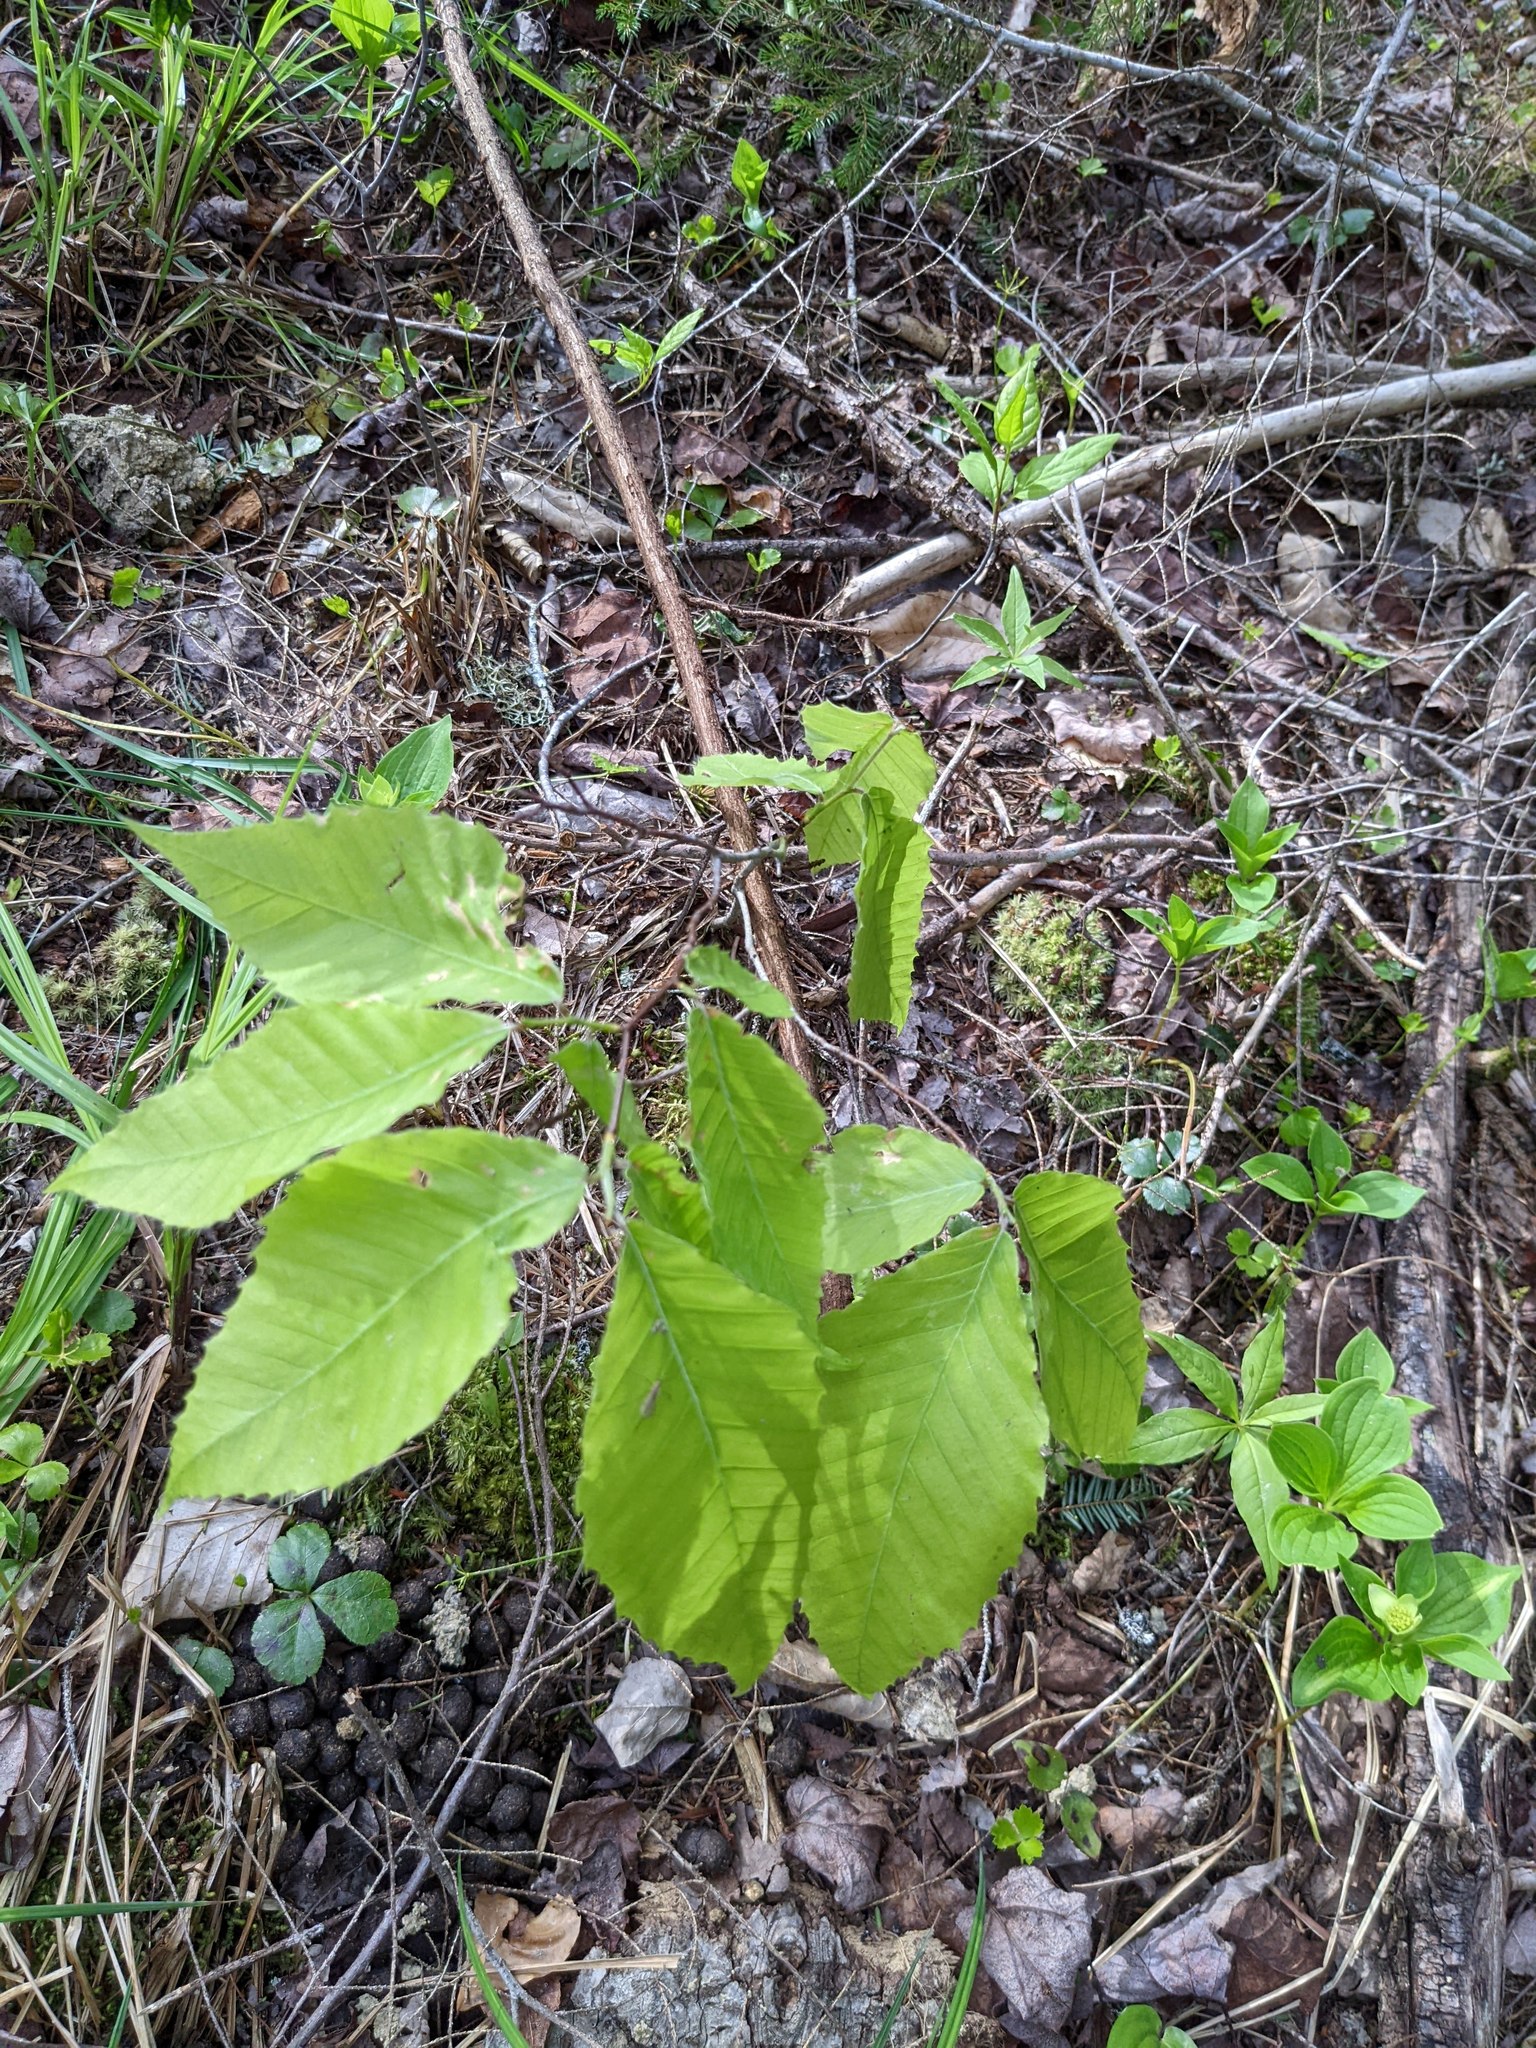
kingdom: Plantae
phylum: Tracheophyta
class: Magnoliopsida
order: Fagales
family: Fagaceae
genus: Fagus
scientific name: Fagus grandifolia
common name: American beech
